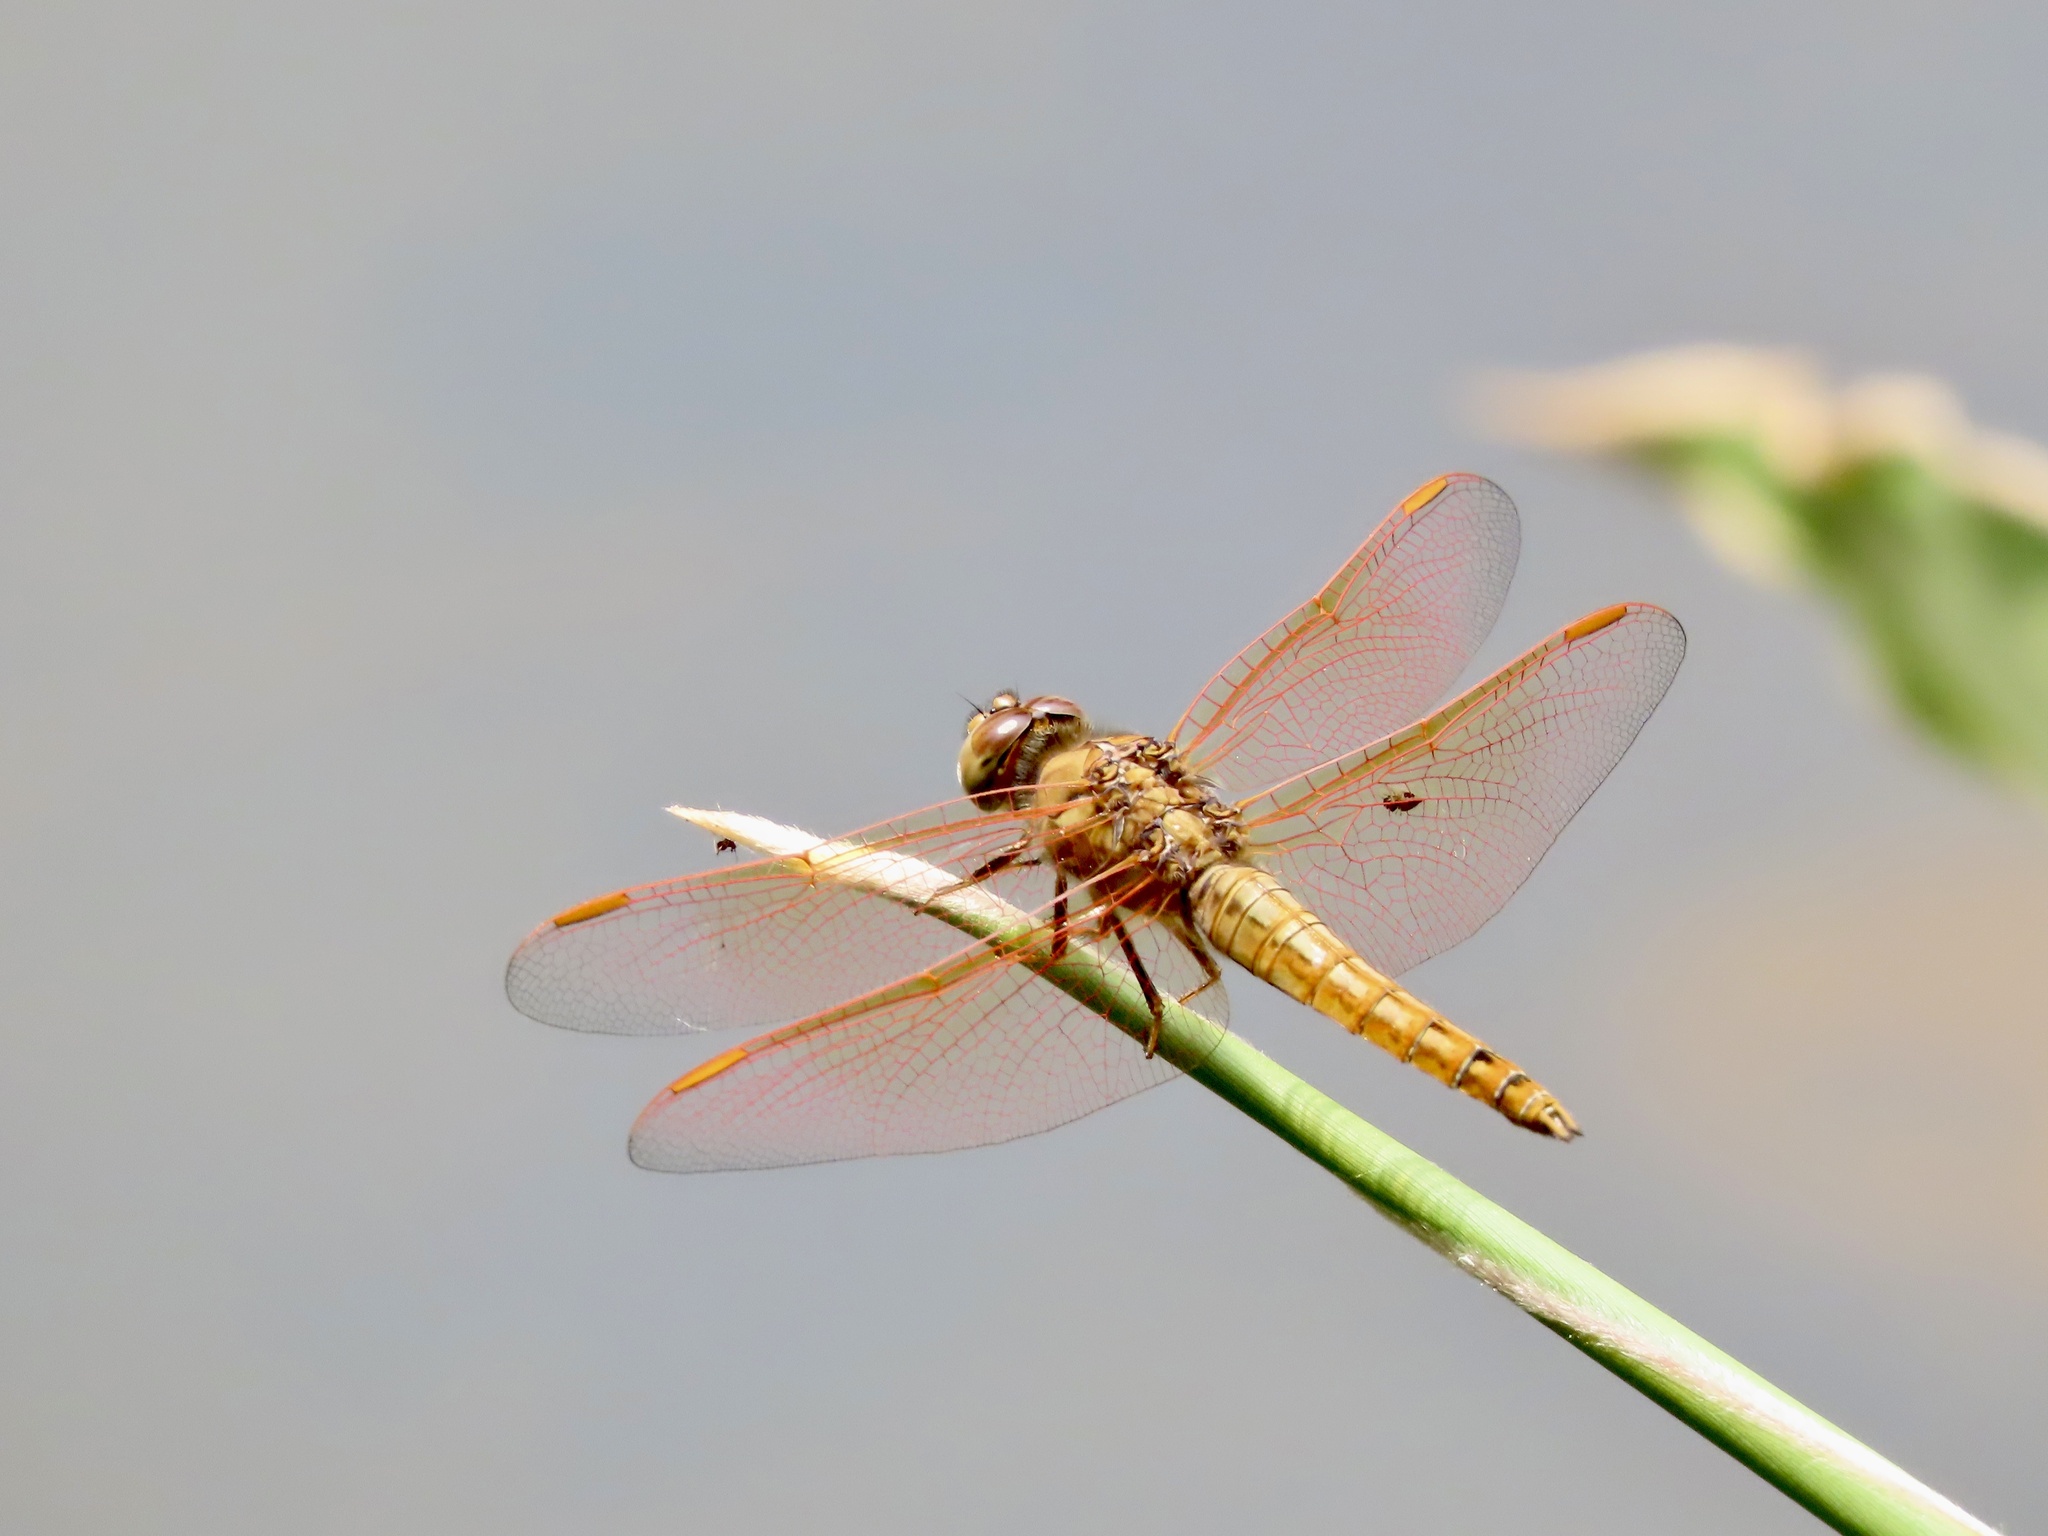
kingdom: Animalia
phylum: Arthropoda
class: Insecta
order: Odonata
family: Libellulidae
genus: Brachythemis
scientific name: Brachythemis contaminata
